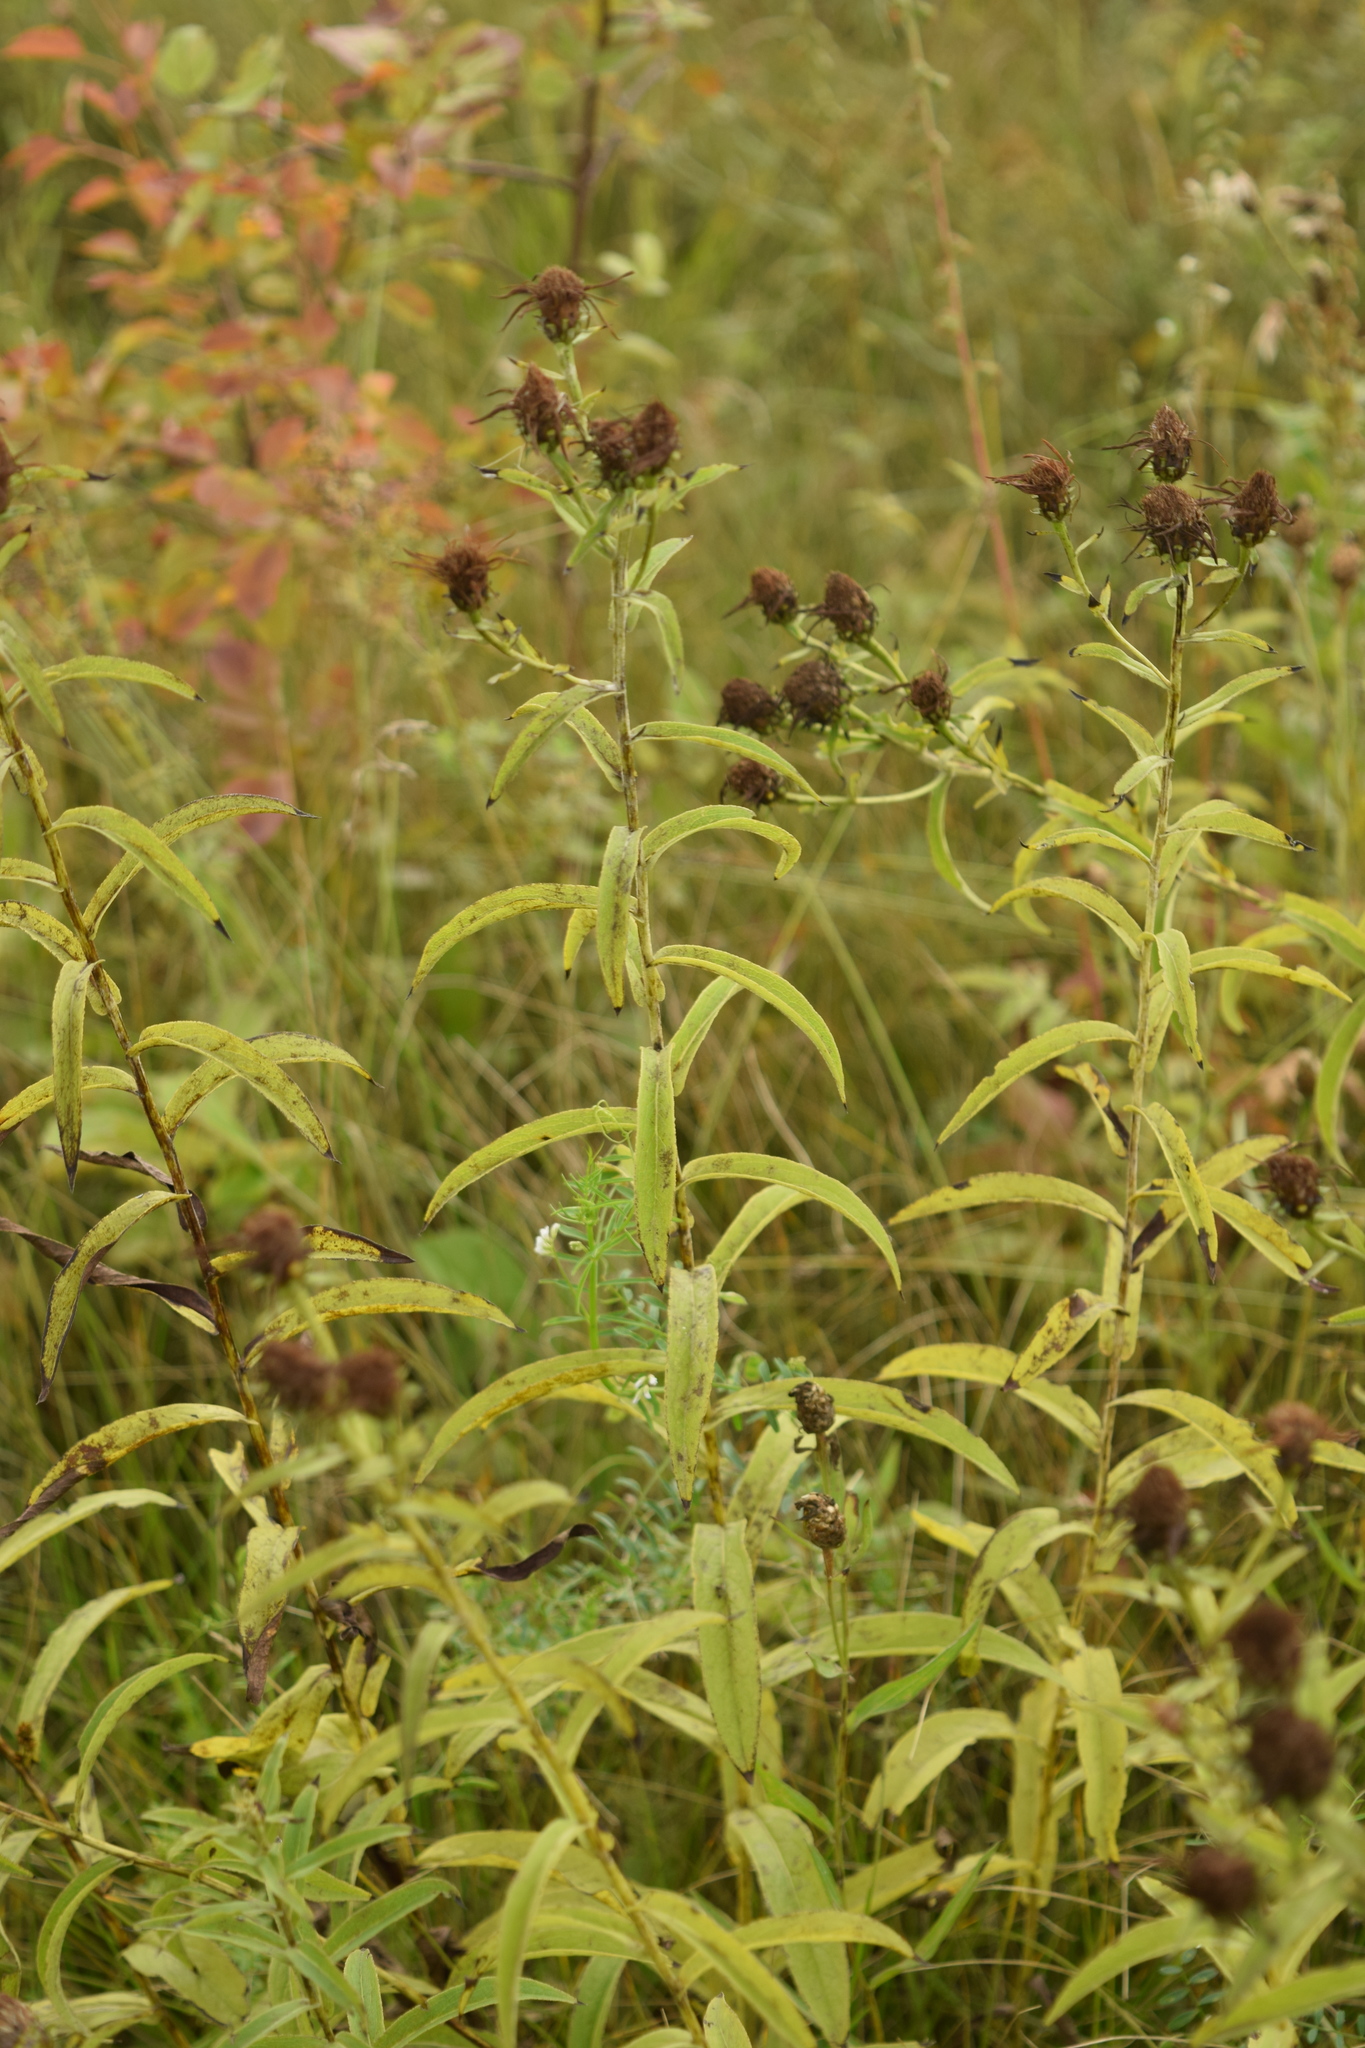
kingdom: Plantae
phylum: Tracheophyta
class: Magnoliopsida
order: Asterales
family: Asteraceae
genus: Pentanema
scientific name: Pentanema salicinum
